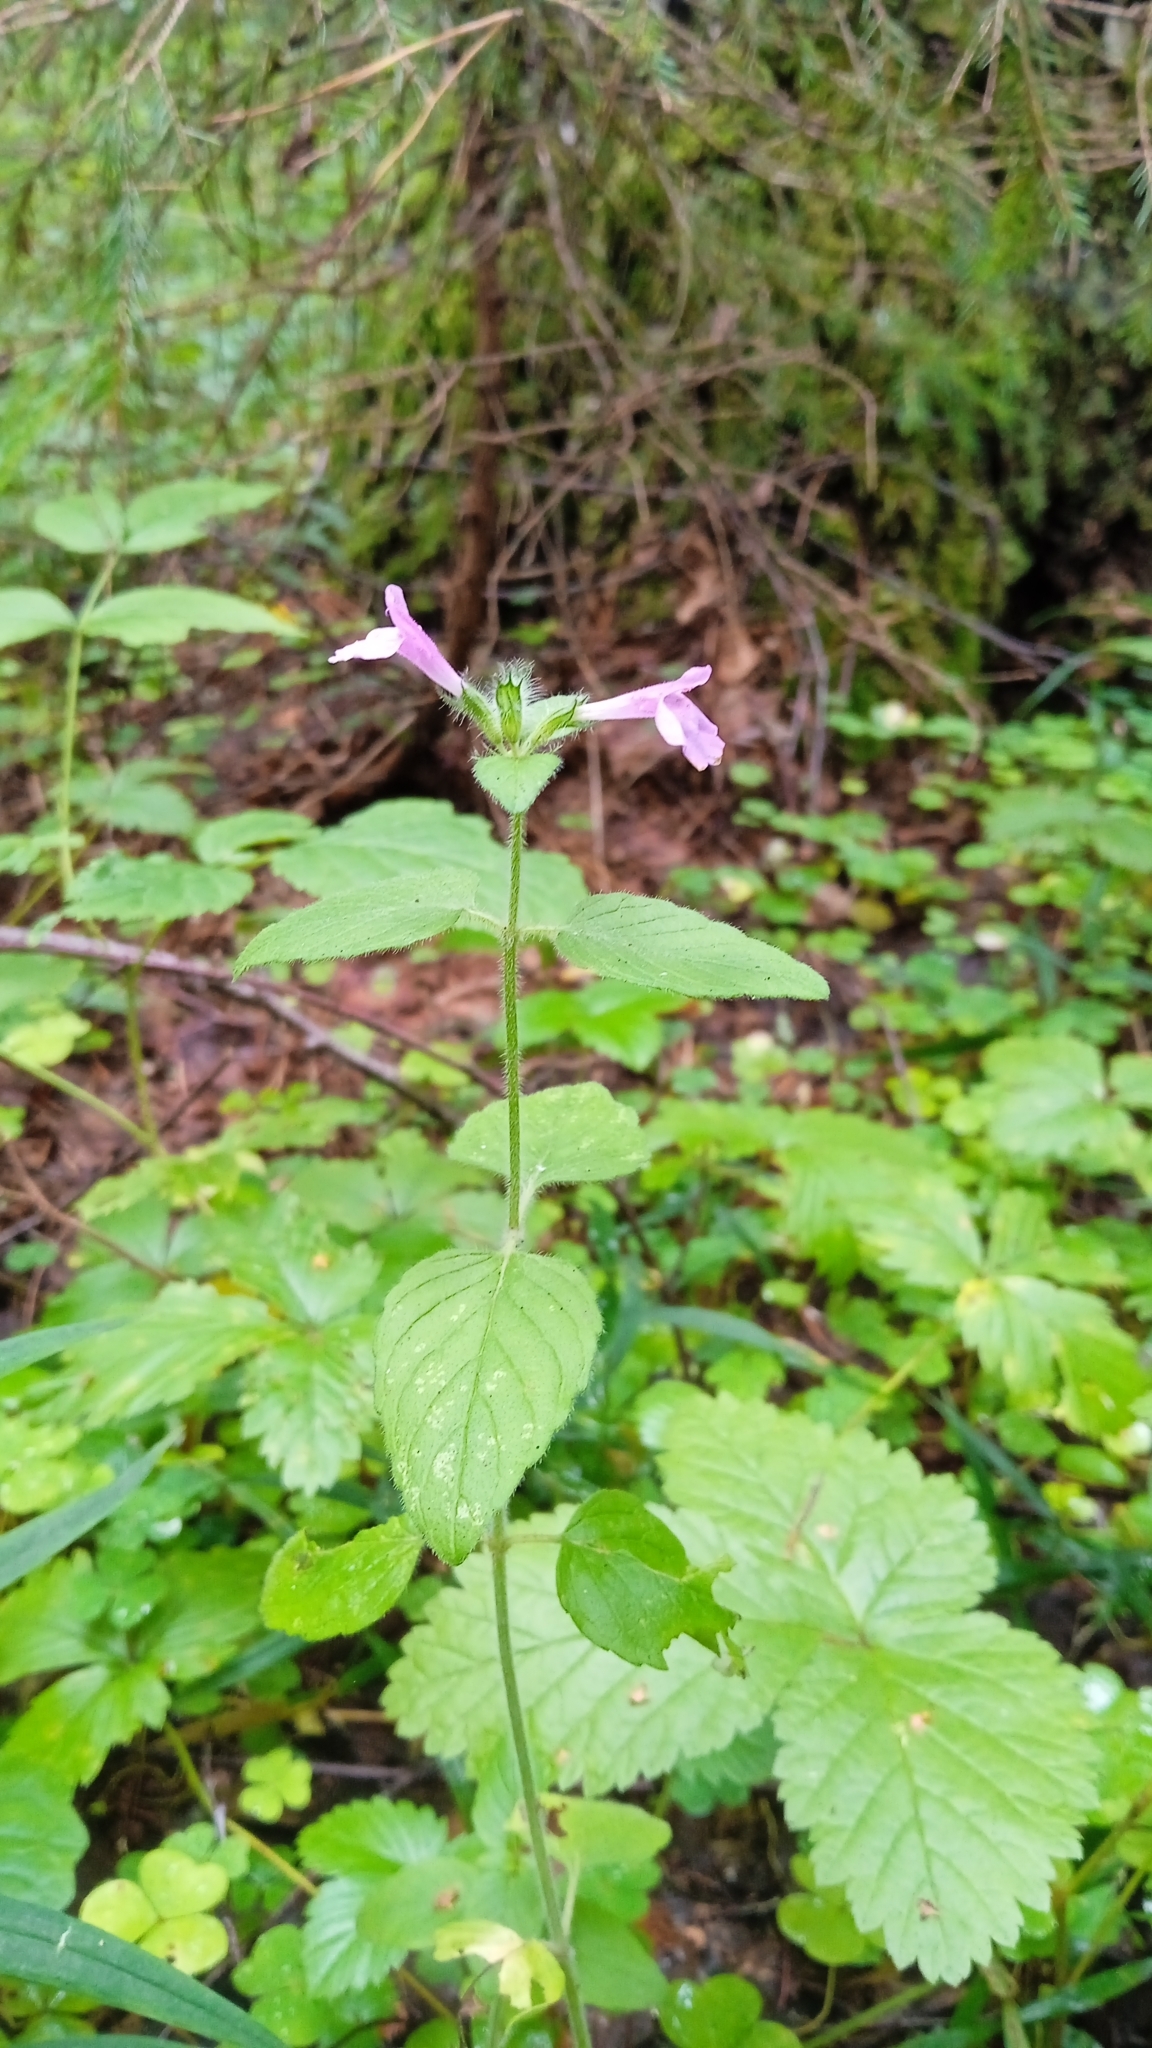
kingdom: Plantae
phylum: Tracheophyta
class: Magnoliopsida
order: Lamiales
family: Lamiaceae
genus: Clinopodium
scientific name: Clinopodium vulgare
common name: Wild basil
